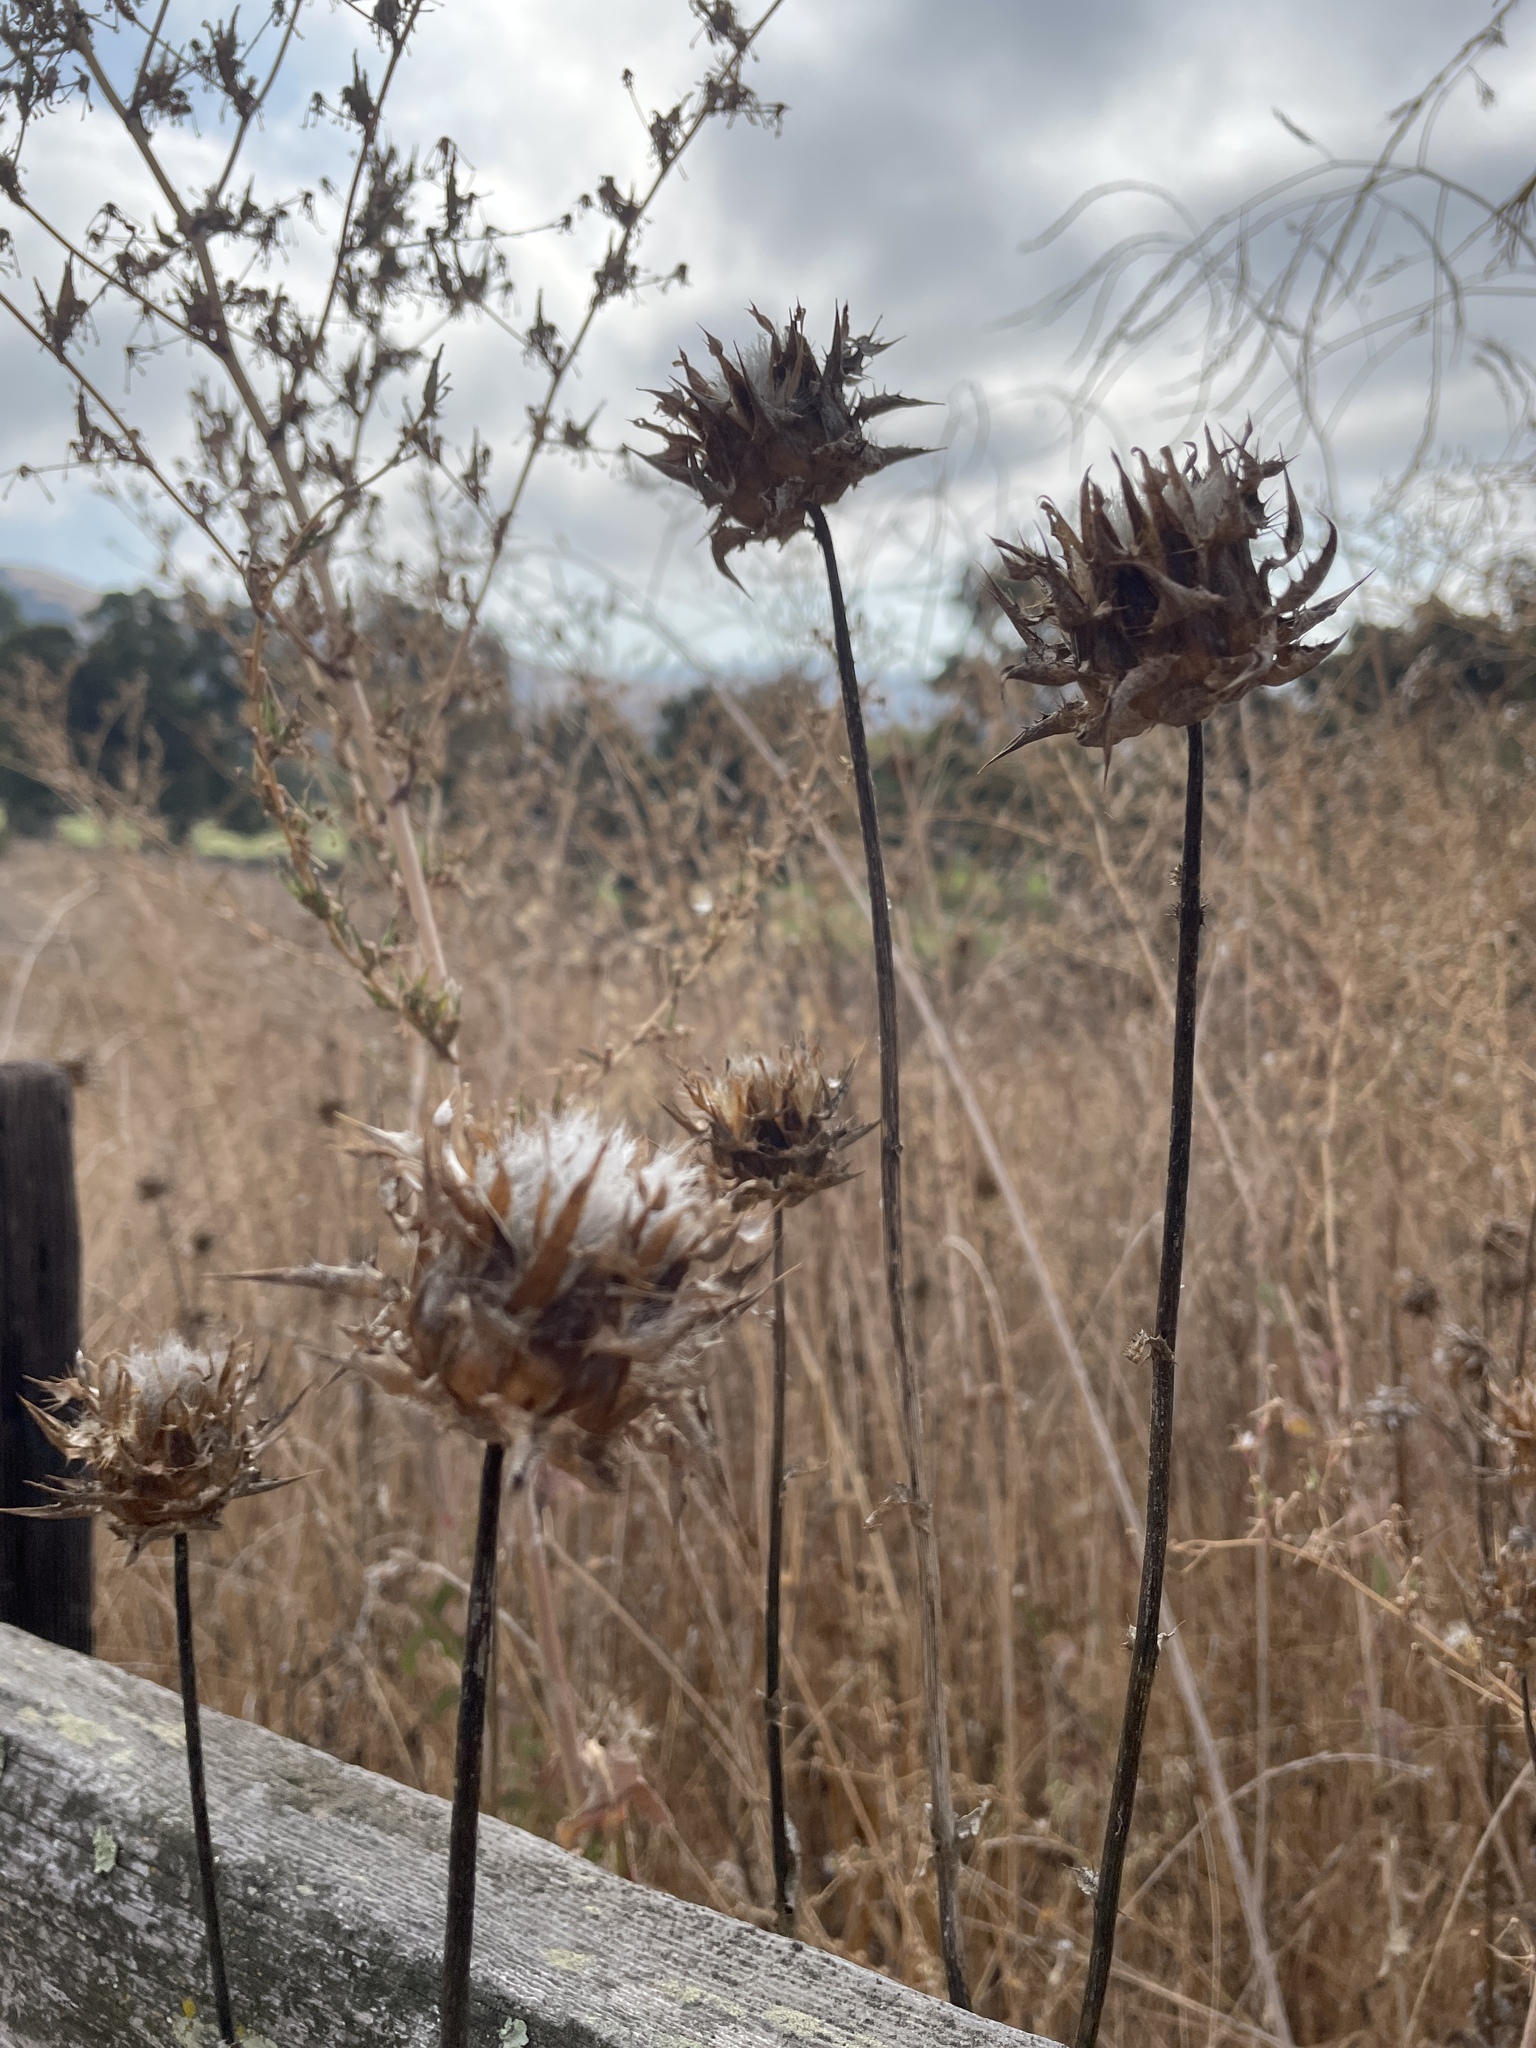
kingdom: Plantae
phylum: Tracheophyta
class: Magnoliopsida
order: Asterales
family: Asteraceae
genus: Silybum
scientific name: Silybum marianum
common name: Milk thistle
